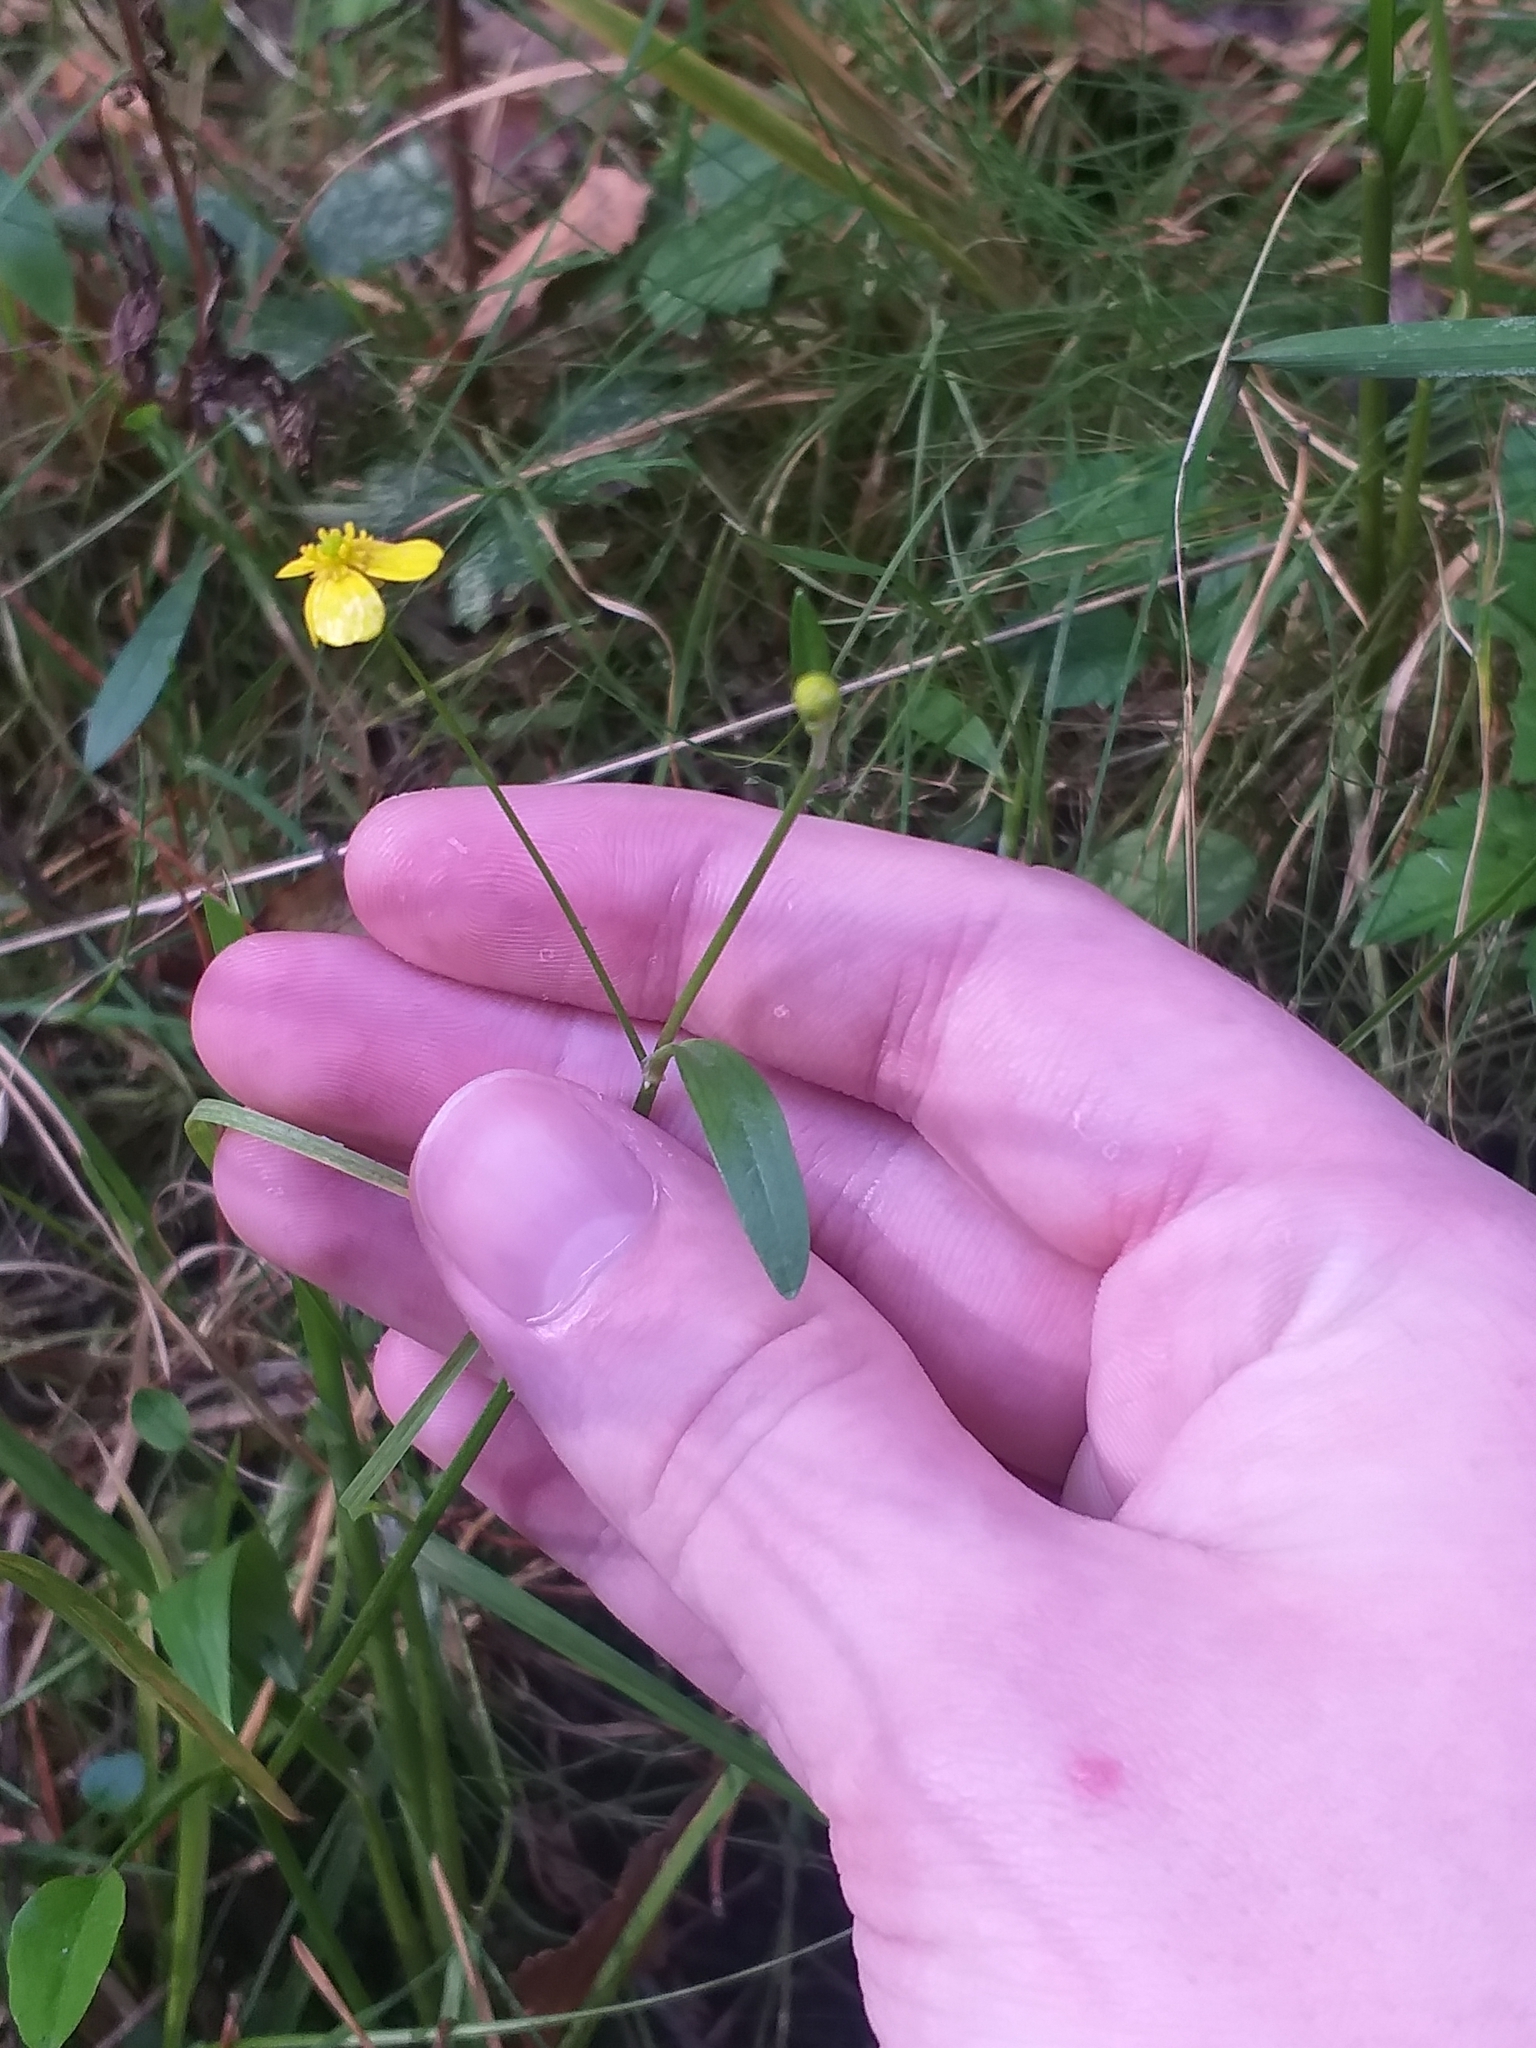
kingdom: Plantae
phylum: Tracheophyta
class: Magnoliopsida
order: Ranunculales
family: Ranunculaceae
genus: Ranunculus
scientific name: Ranunculus flammula
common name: Lesser spearwort
